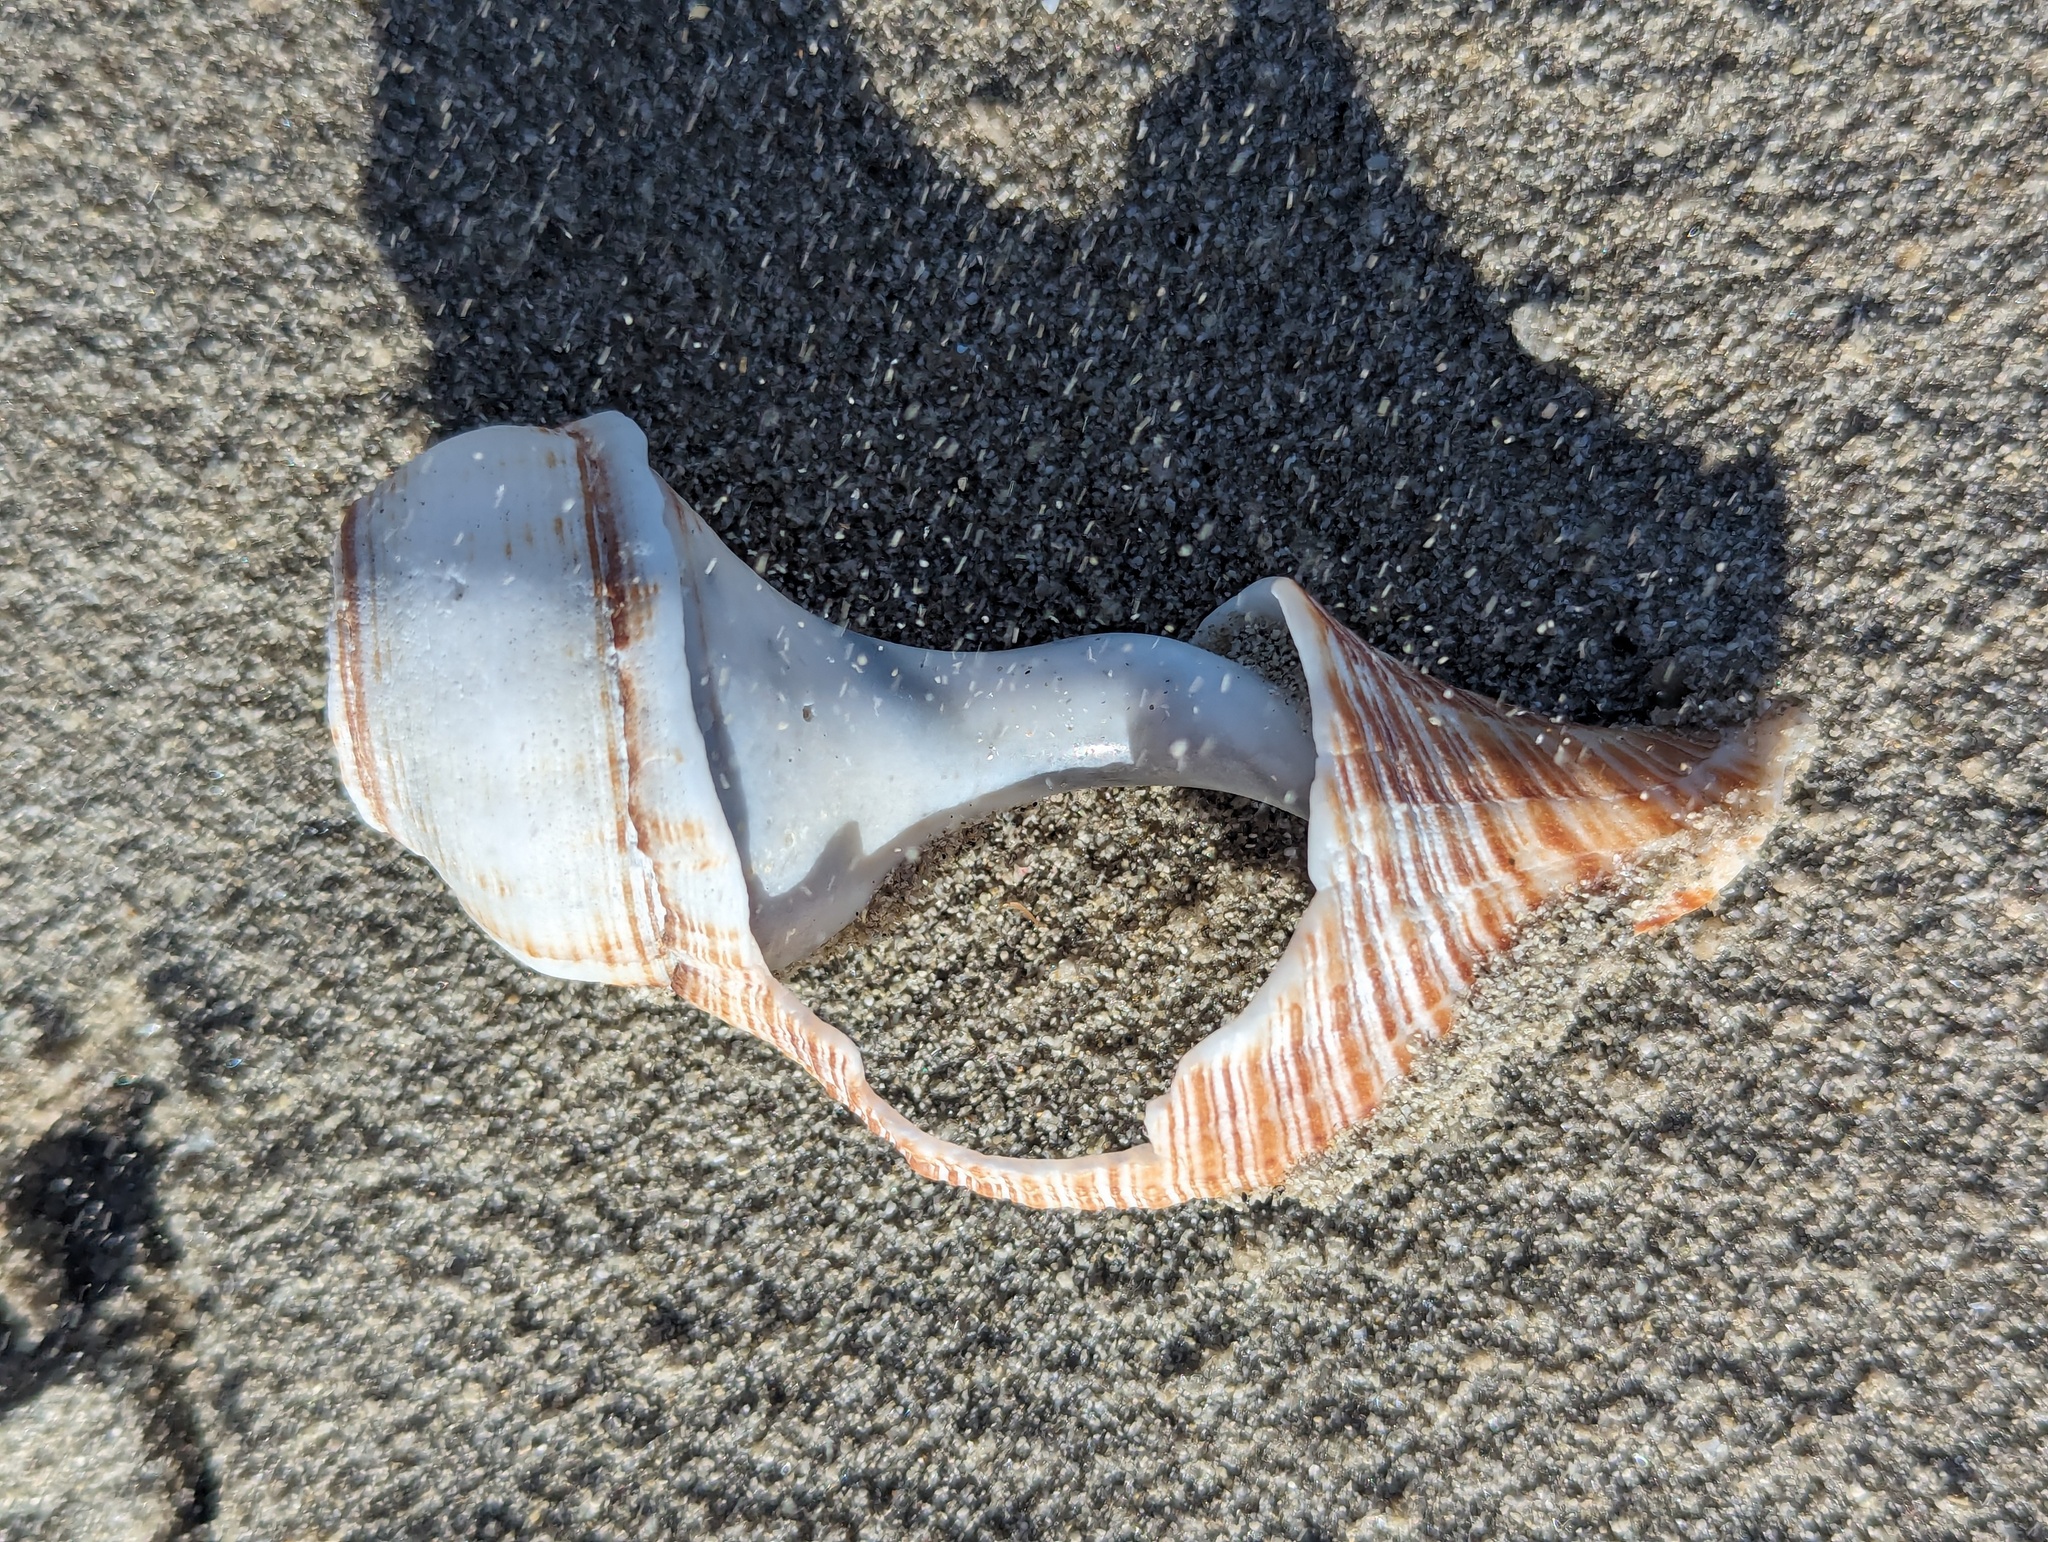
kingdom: Animalia
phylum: Mollusca
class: Gastropoda
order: Neogastropoda
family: Austrosiphonidae
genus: Penion
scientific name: Penion sulcatus
